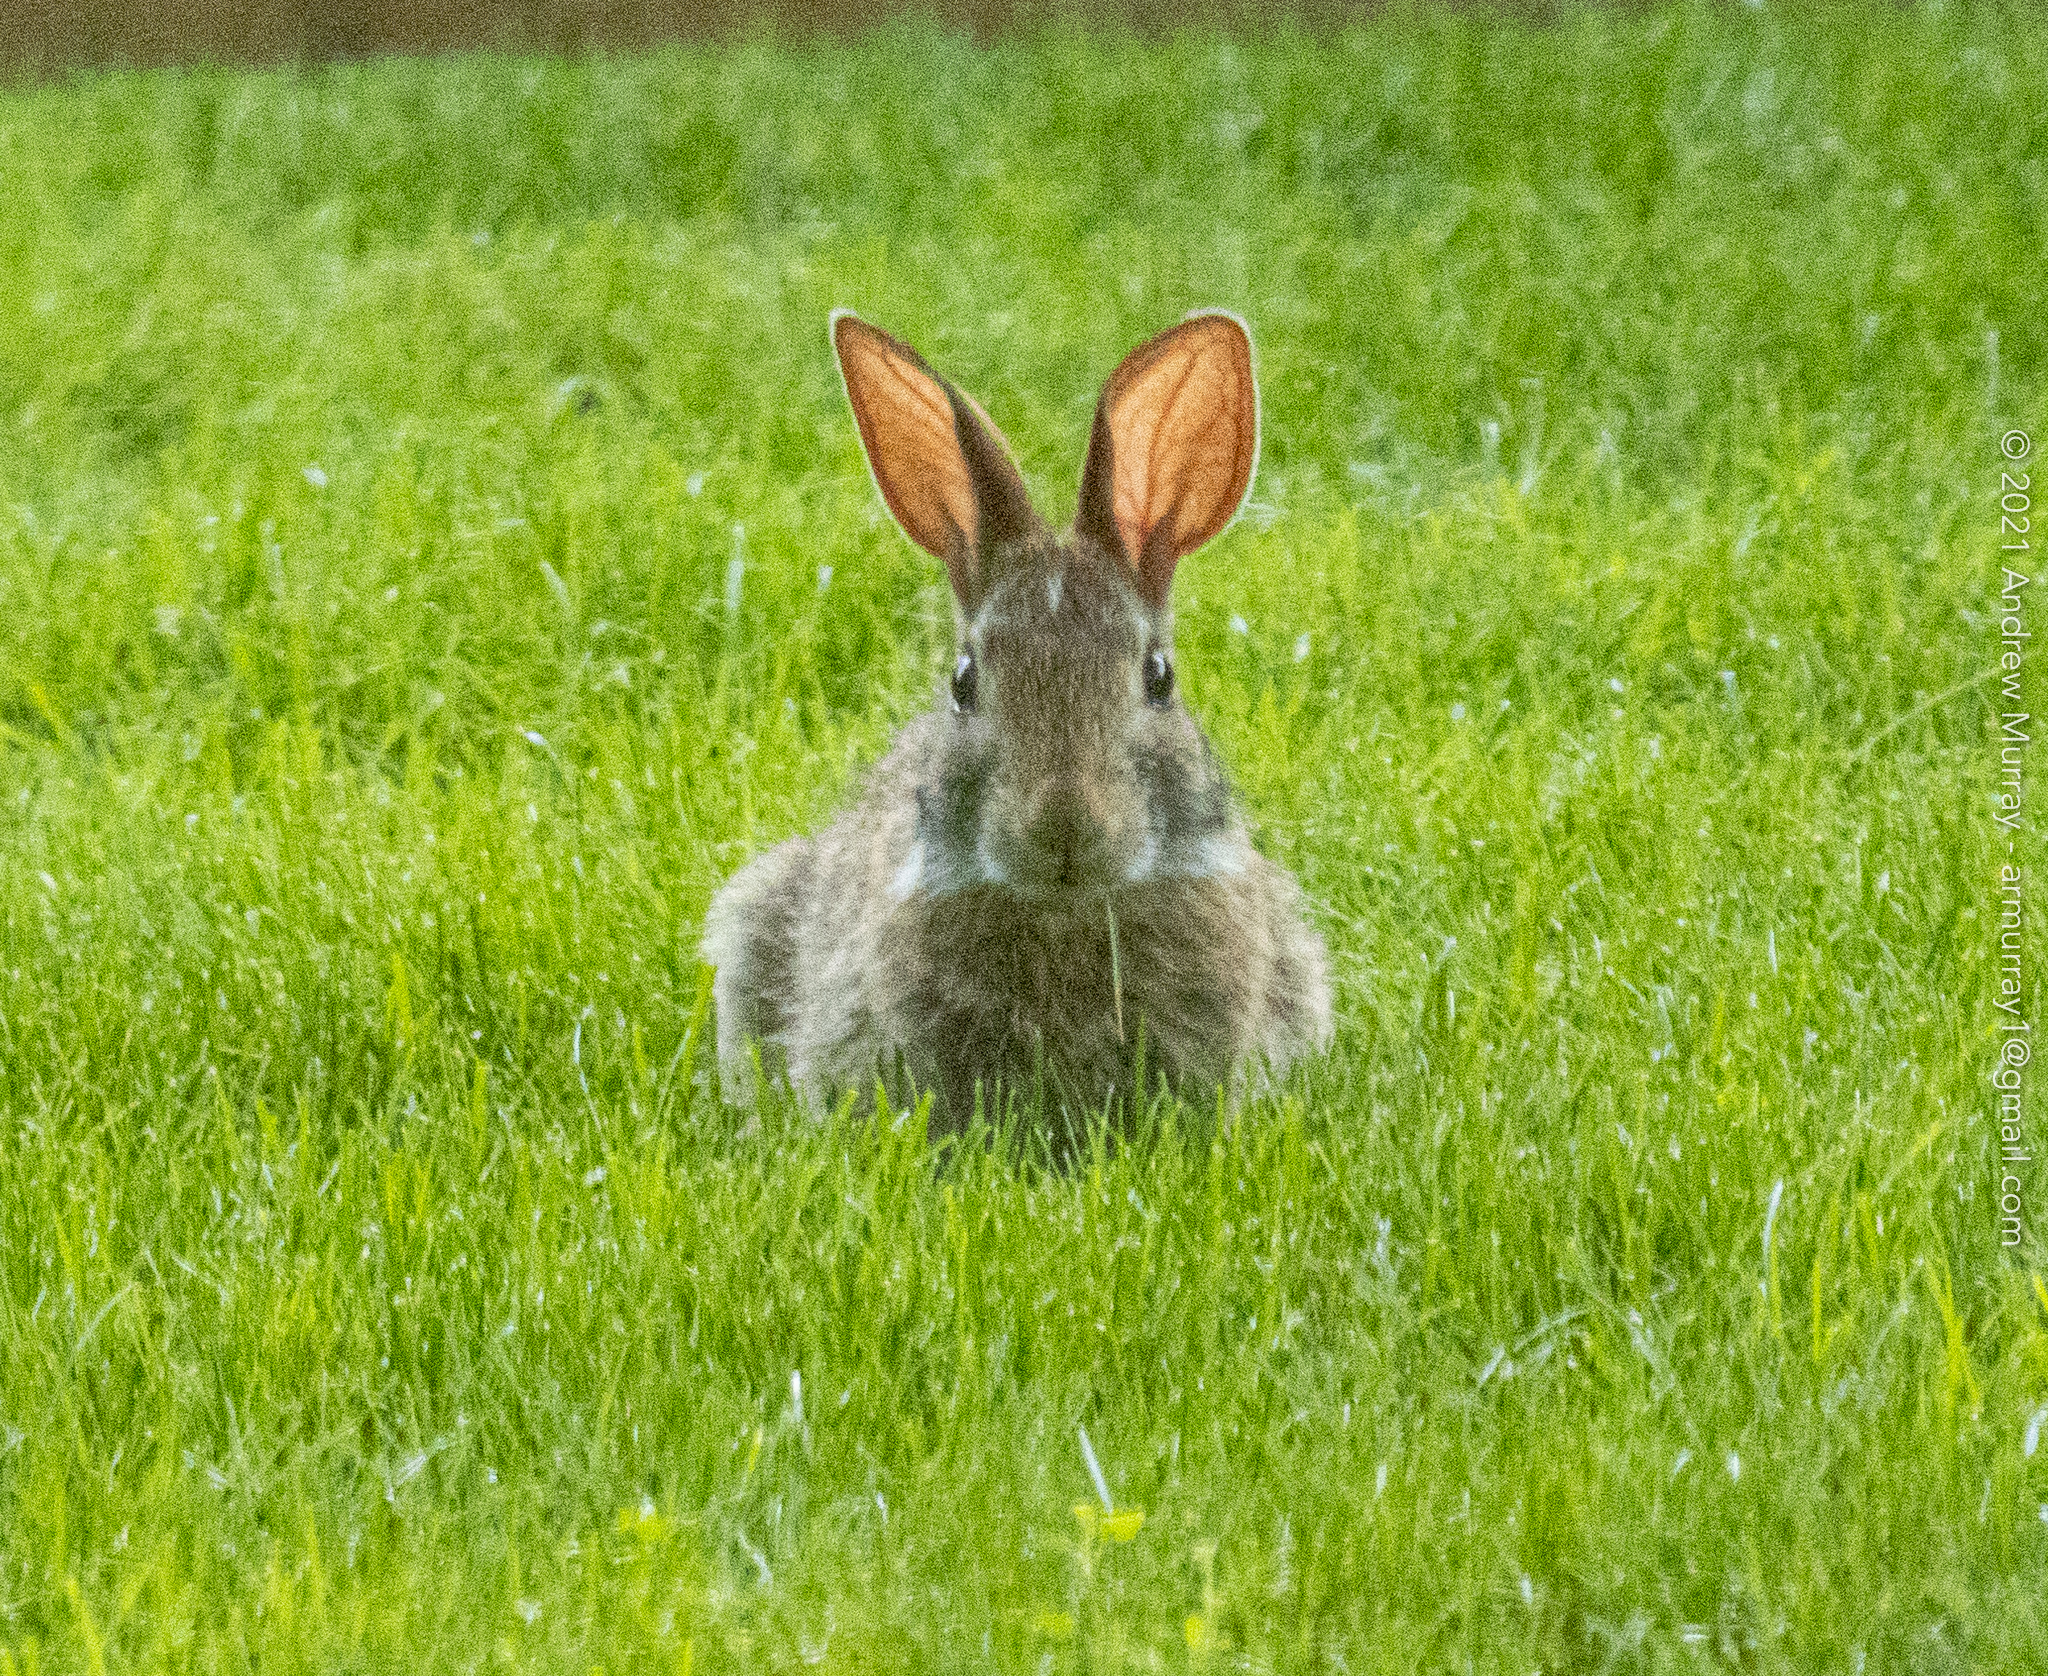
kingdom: Animalia
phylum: Chordata
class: Mammalia
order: Lagomorpha
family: Leporidae
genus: Sylvilagus
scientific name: Sylvilagus floridanus
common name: Eastern cottontail
